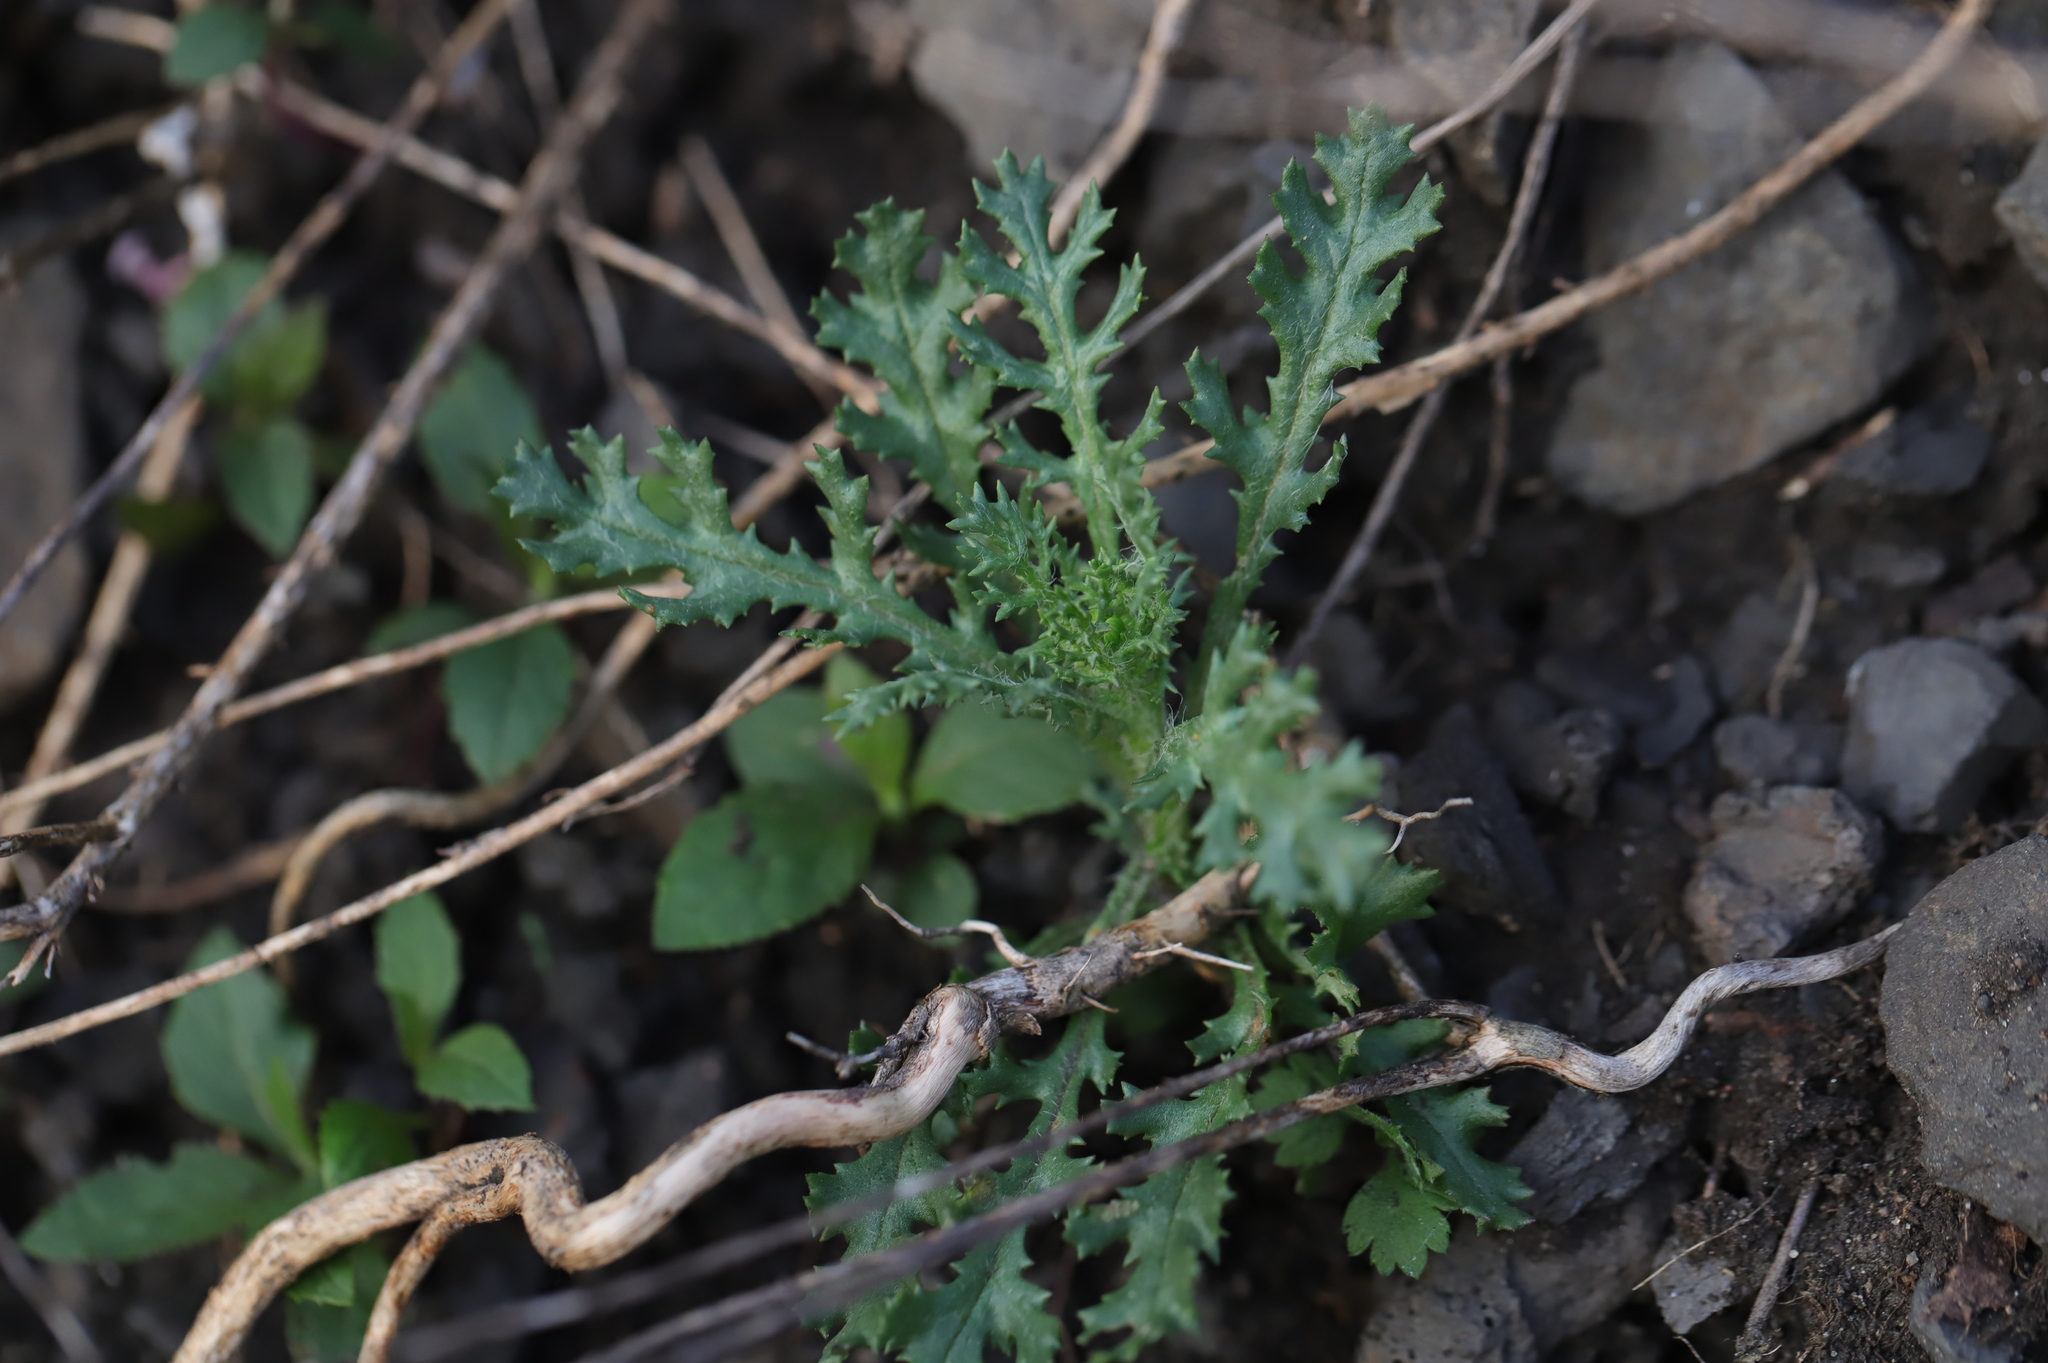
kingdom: Plantae
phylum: Tracheophyta
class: Magnoliopsida
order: Asterales
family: Asteraceae
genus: Senecio
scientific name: Senecio vulgaris
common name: Old-man-in-the-spring
